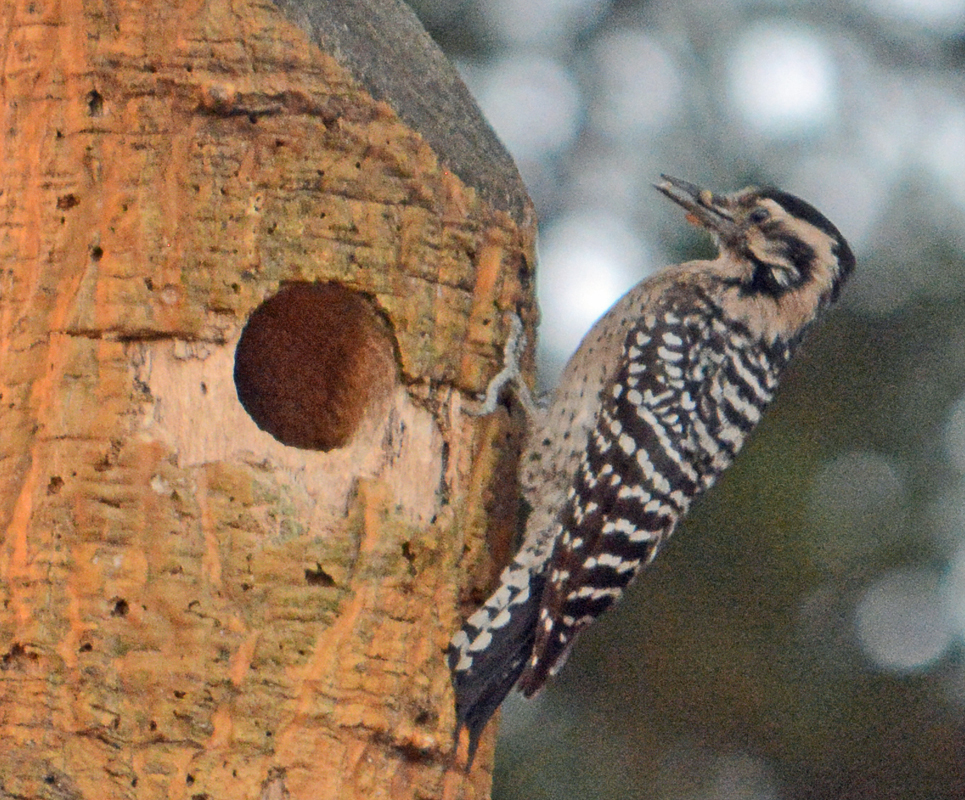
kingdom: Animalia
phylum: Chordata
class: Aves
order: Piciformes
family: Picidae
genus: Dryobates
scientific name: Dryobates scalaris
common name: Ladder-backed woodpecker
